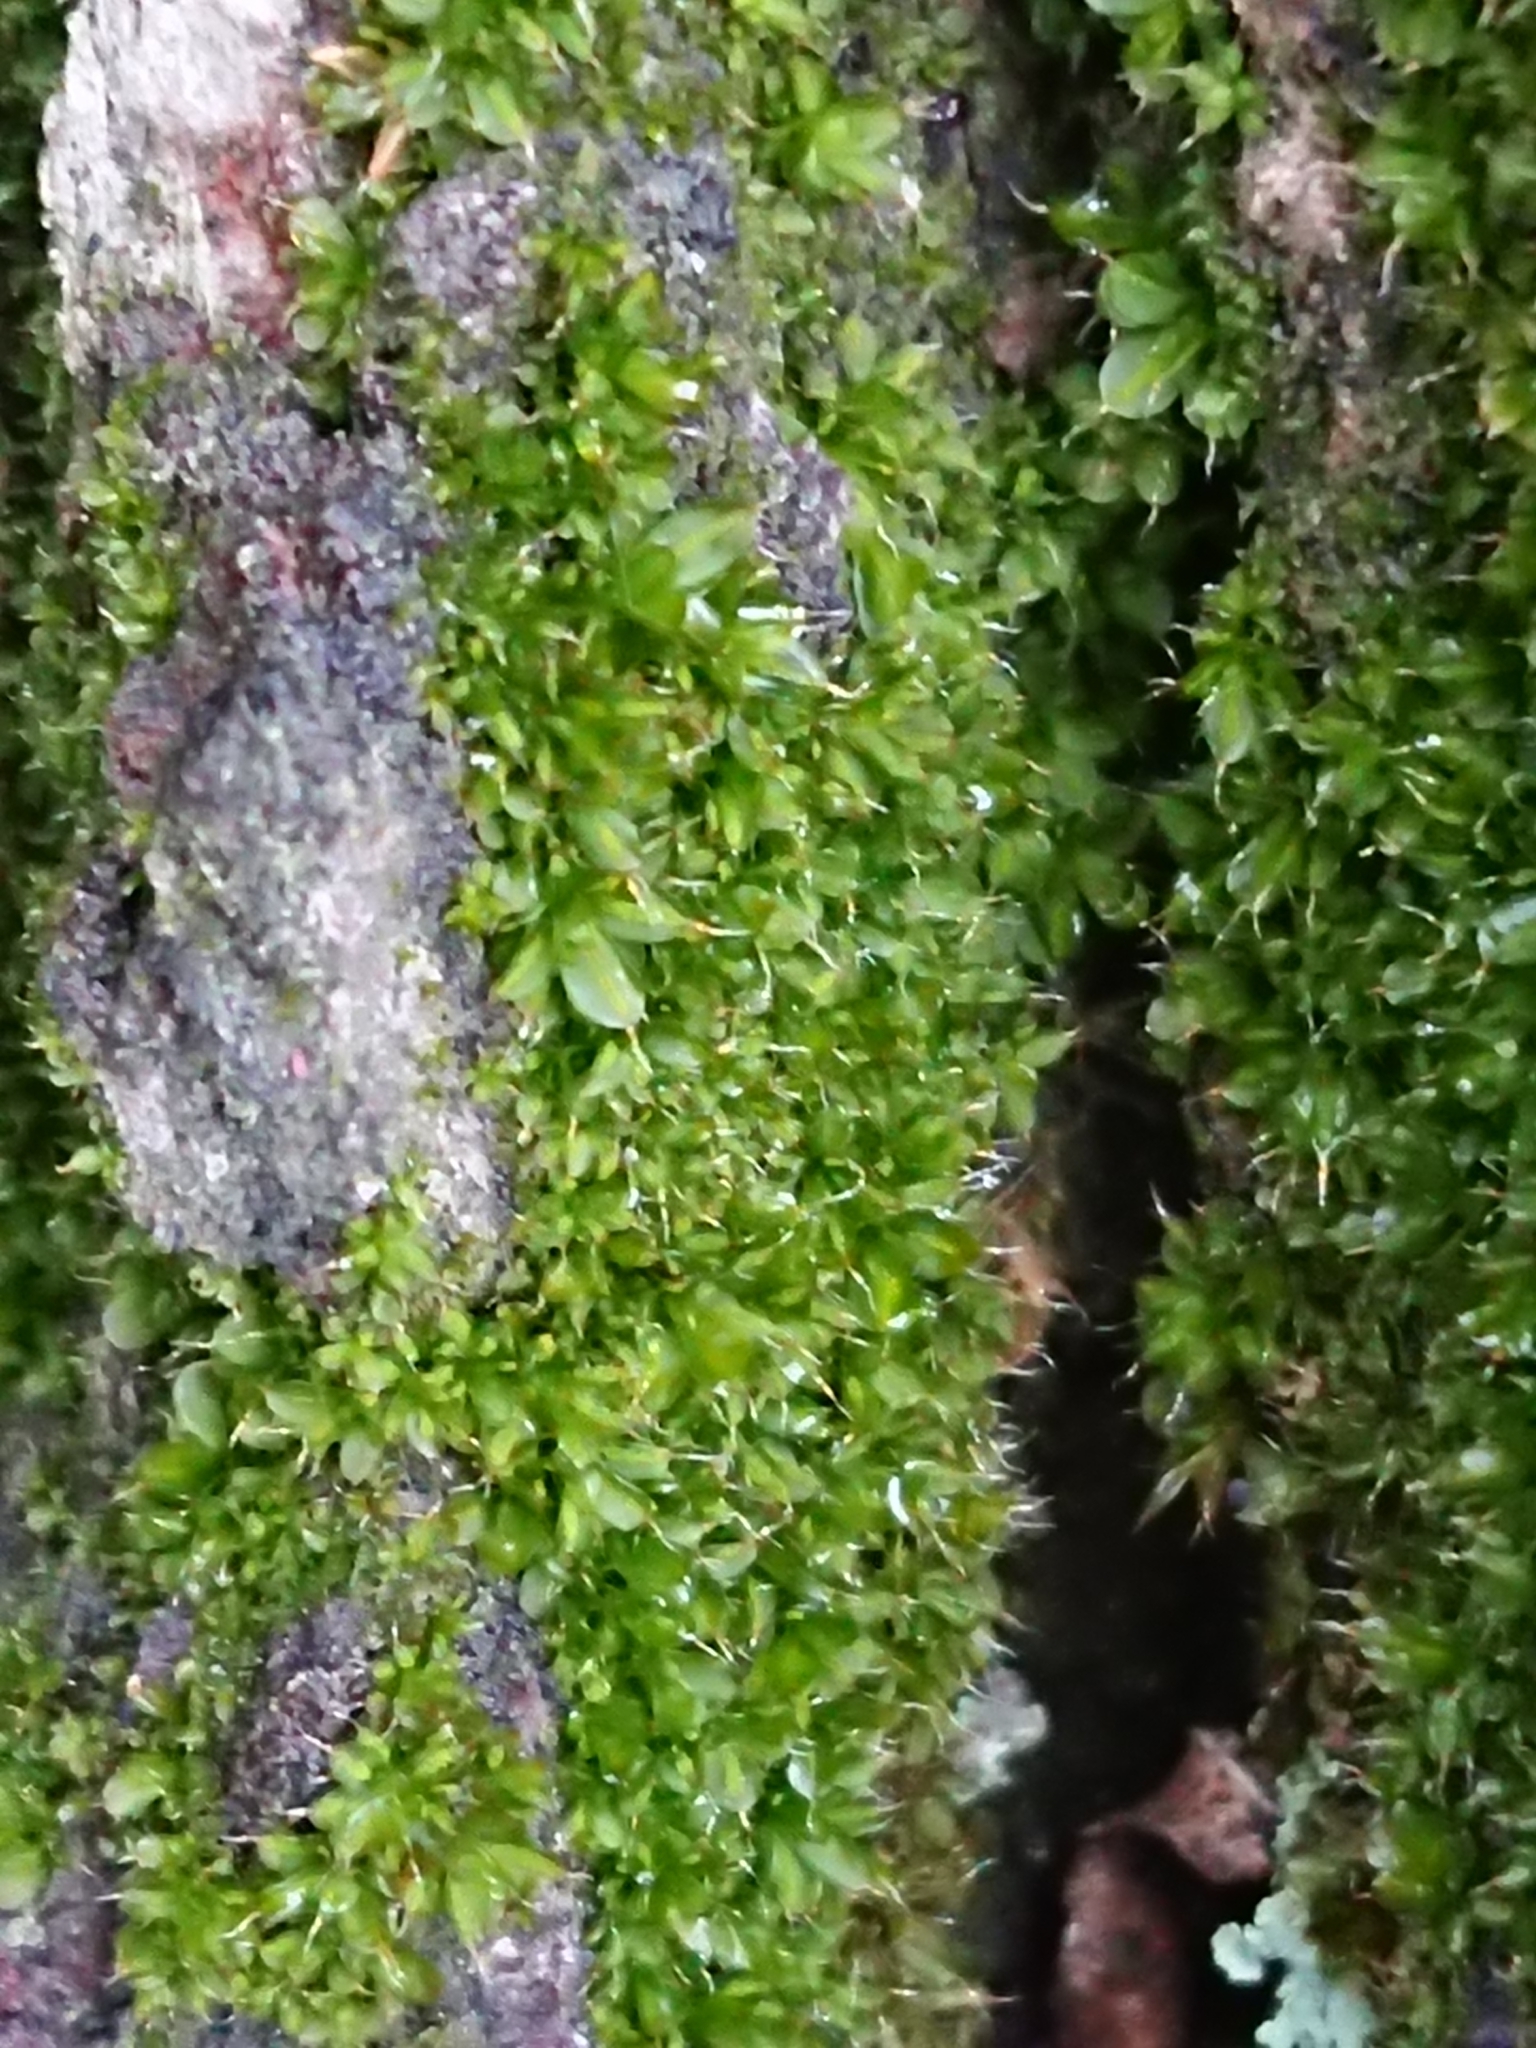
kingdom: Plantae
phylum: Bryophyta
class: Bryopsida
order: Pottiales
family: Pottiaceae
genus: Syntrichia
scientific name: Syntrichia papillosa
